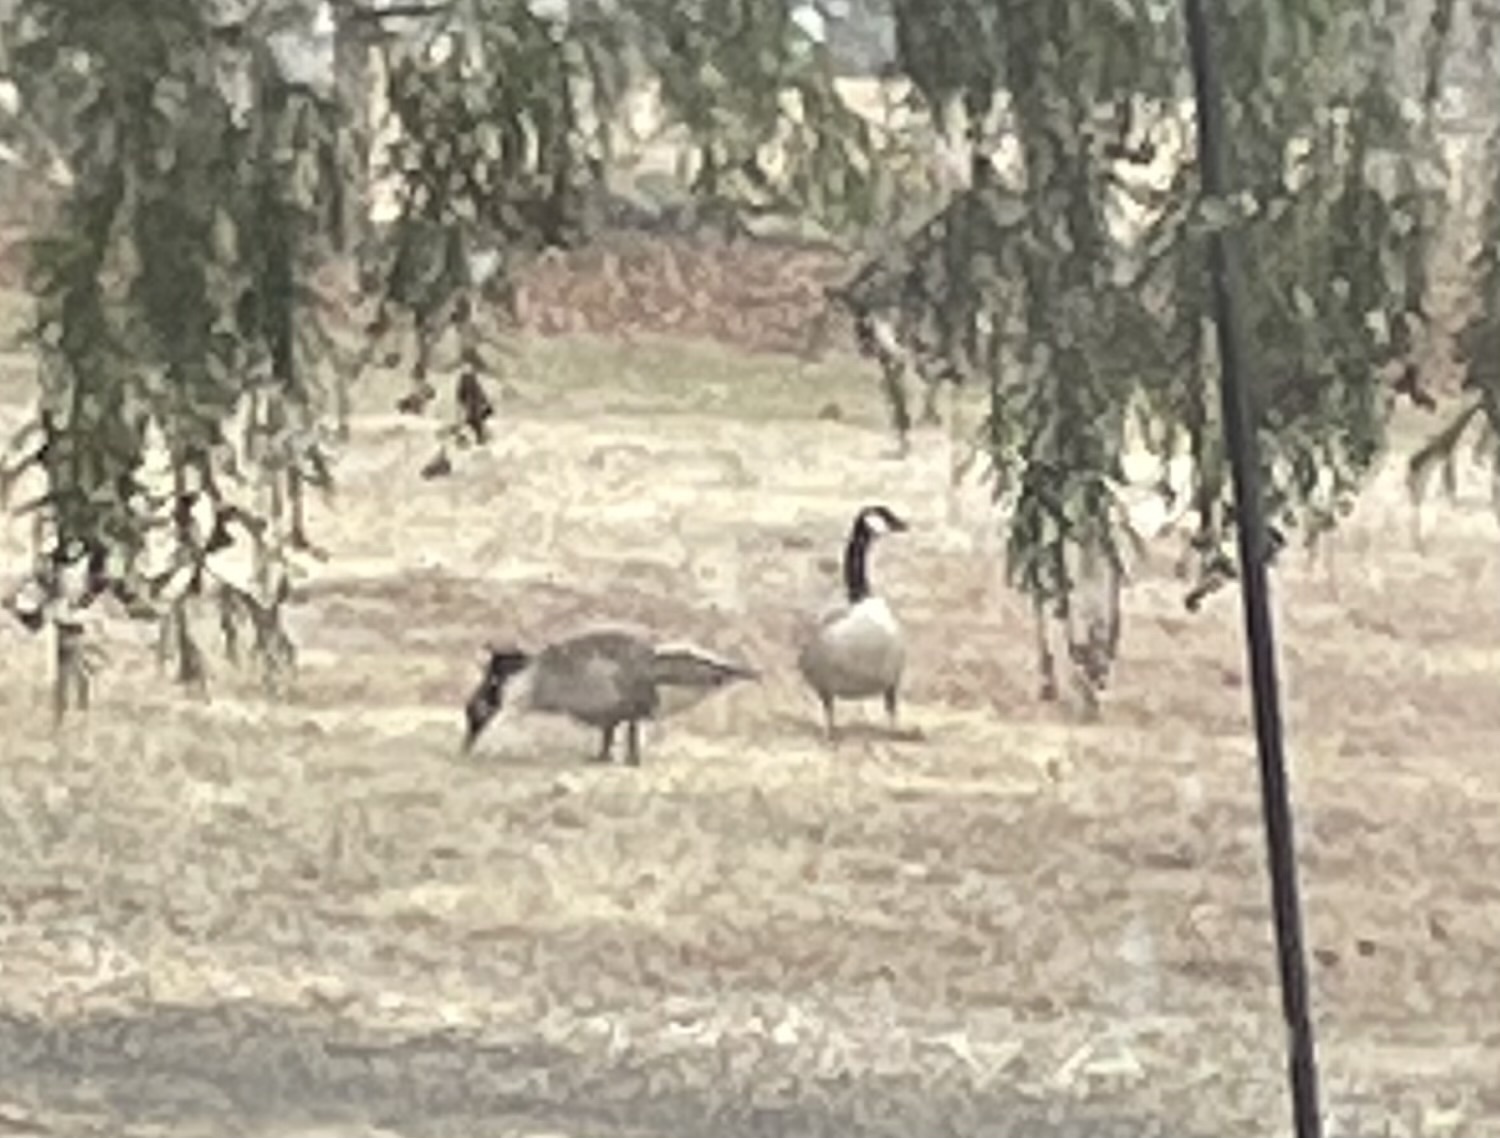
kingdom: Animalia
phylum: Chordata
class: Aves
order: Anseriformes
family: Anatidae
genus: Branta
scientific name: Branta canadensis
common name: Canada goose
